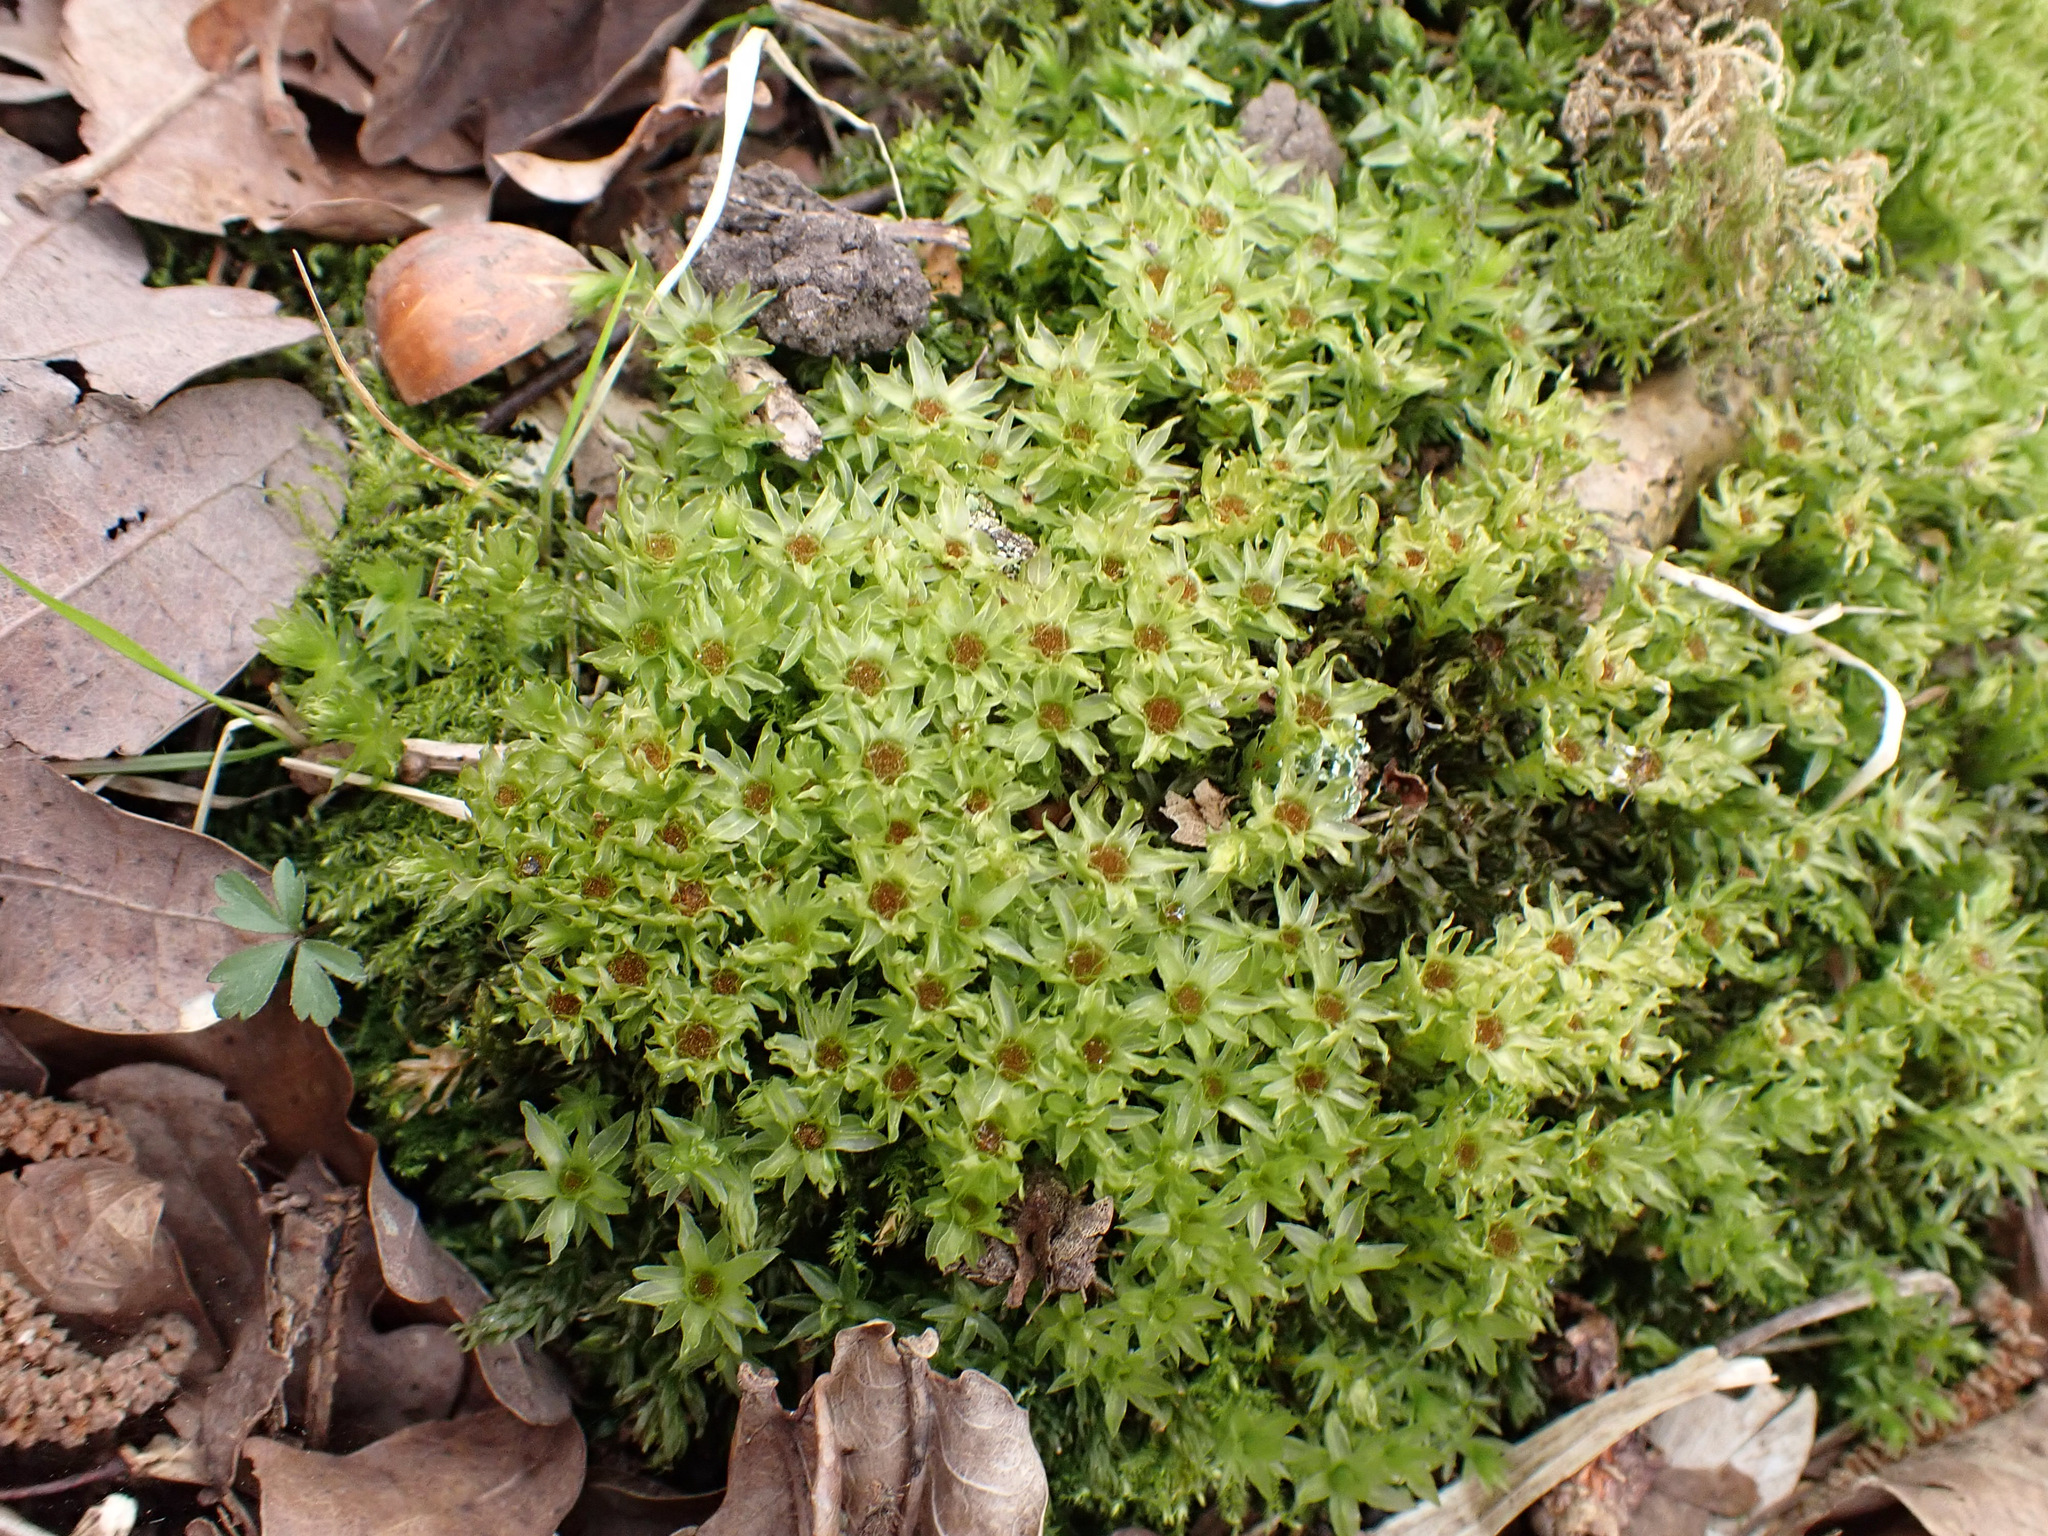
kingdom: Plantae
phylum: Bryophyta
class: Bryopsida
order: Bryales
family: Mniaceae
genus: Mnium
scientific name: Mnium hornum
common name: Swan's-neck leafy moss
